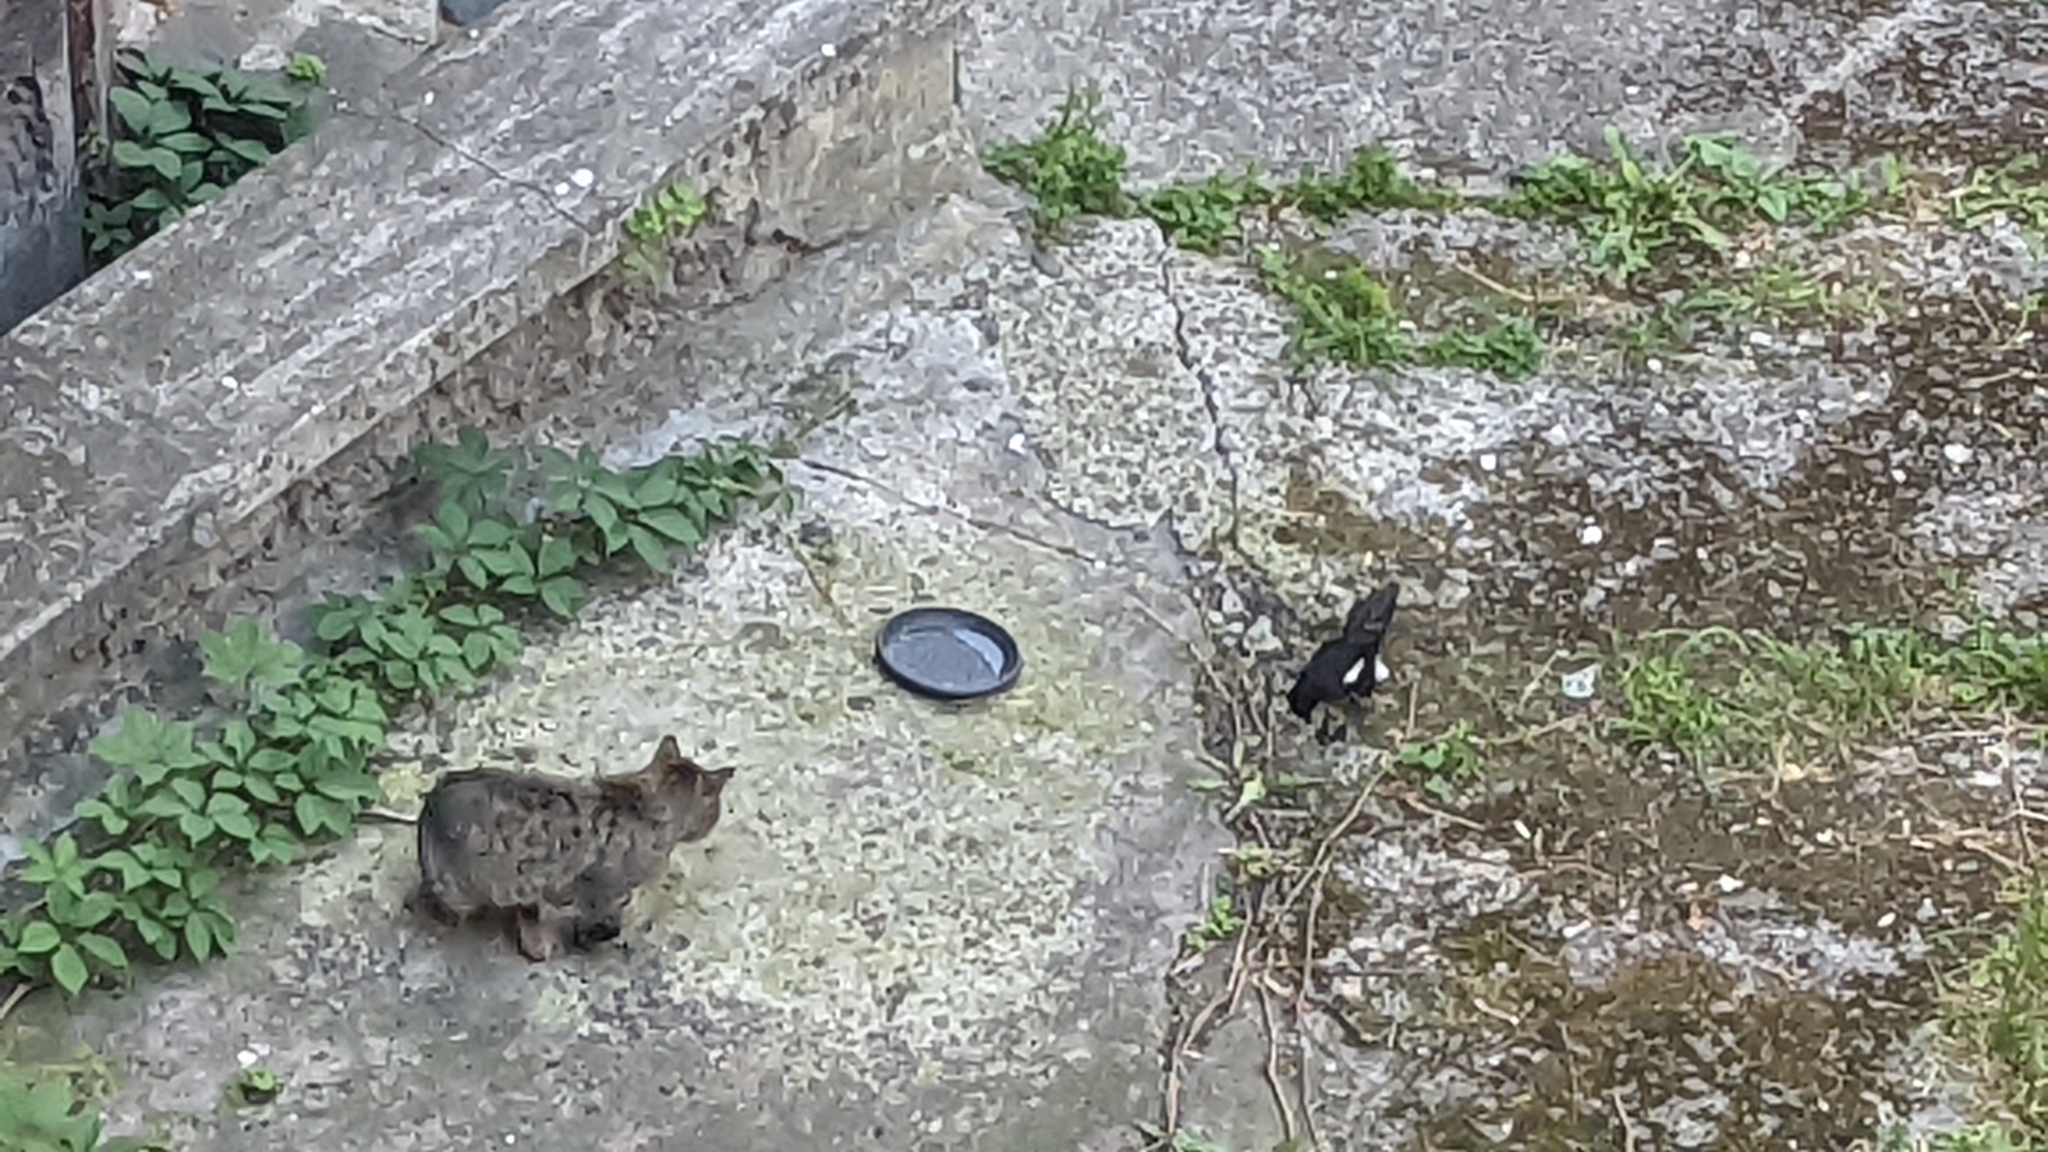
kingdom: Animalia
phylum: Chordata
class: Aves
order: Passeriformes
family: Corvidae
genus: Pica
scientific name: Pica pica
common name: Eurasian magpie
